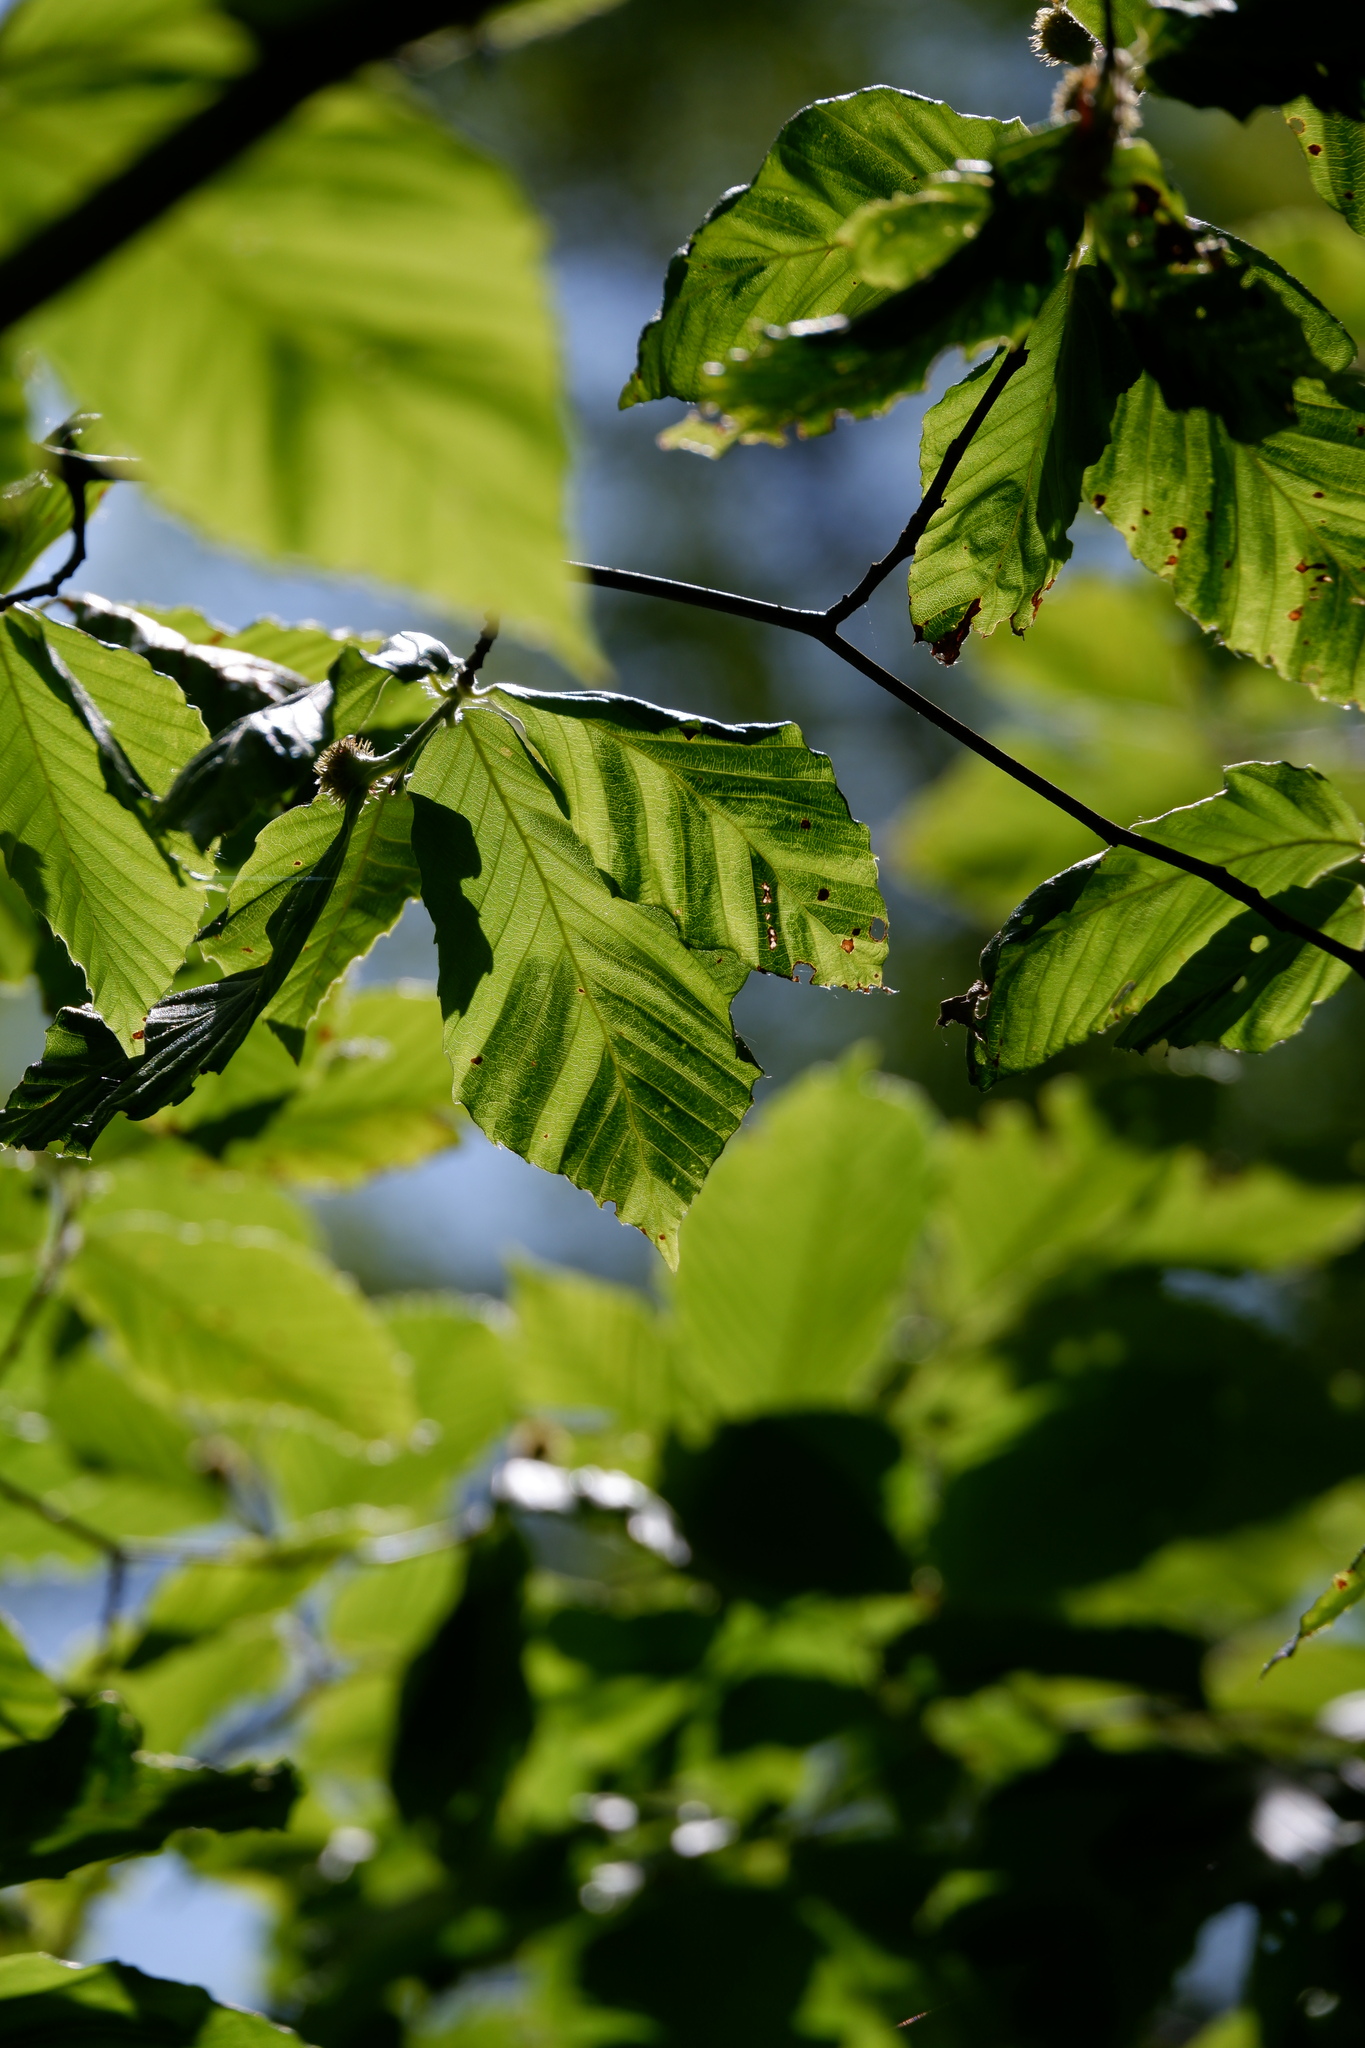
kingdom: Animalia
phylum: Nematoda
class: Chromadorea
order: Rhabditida
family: Anguinidae
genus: Litylenchus
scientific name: Litylenchus crenatae
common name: Beech leaf disease
